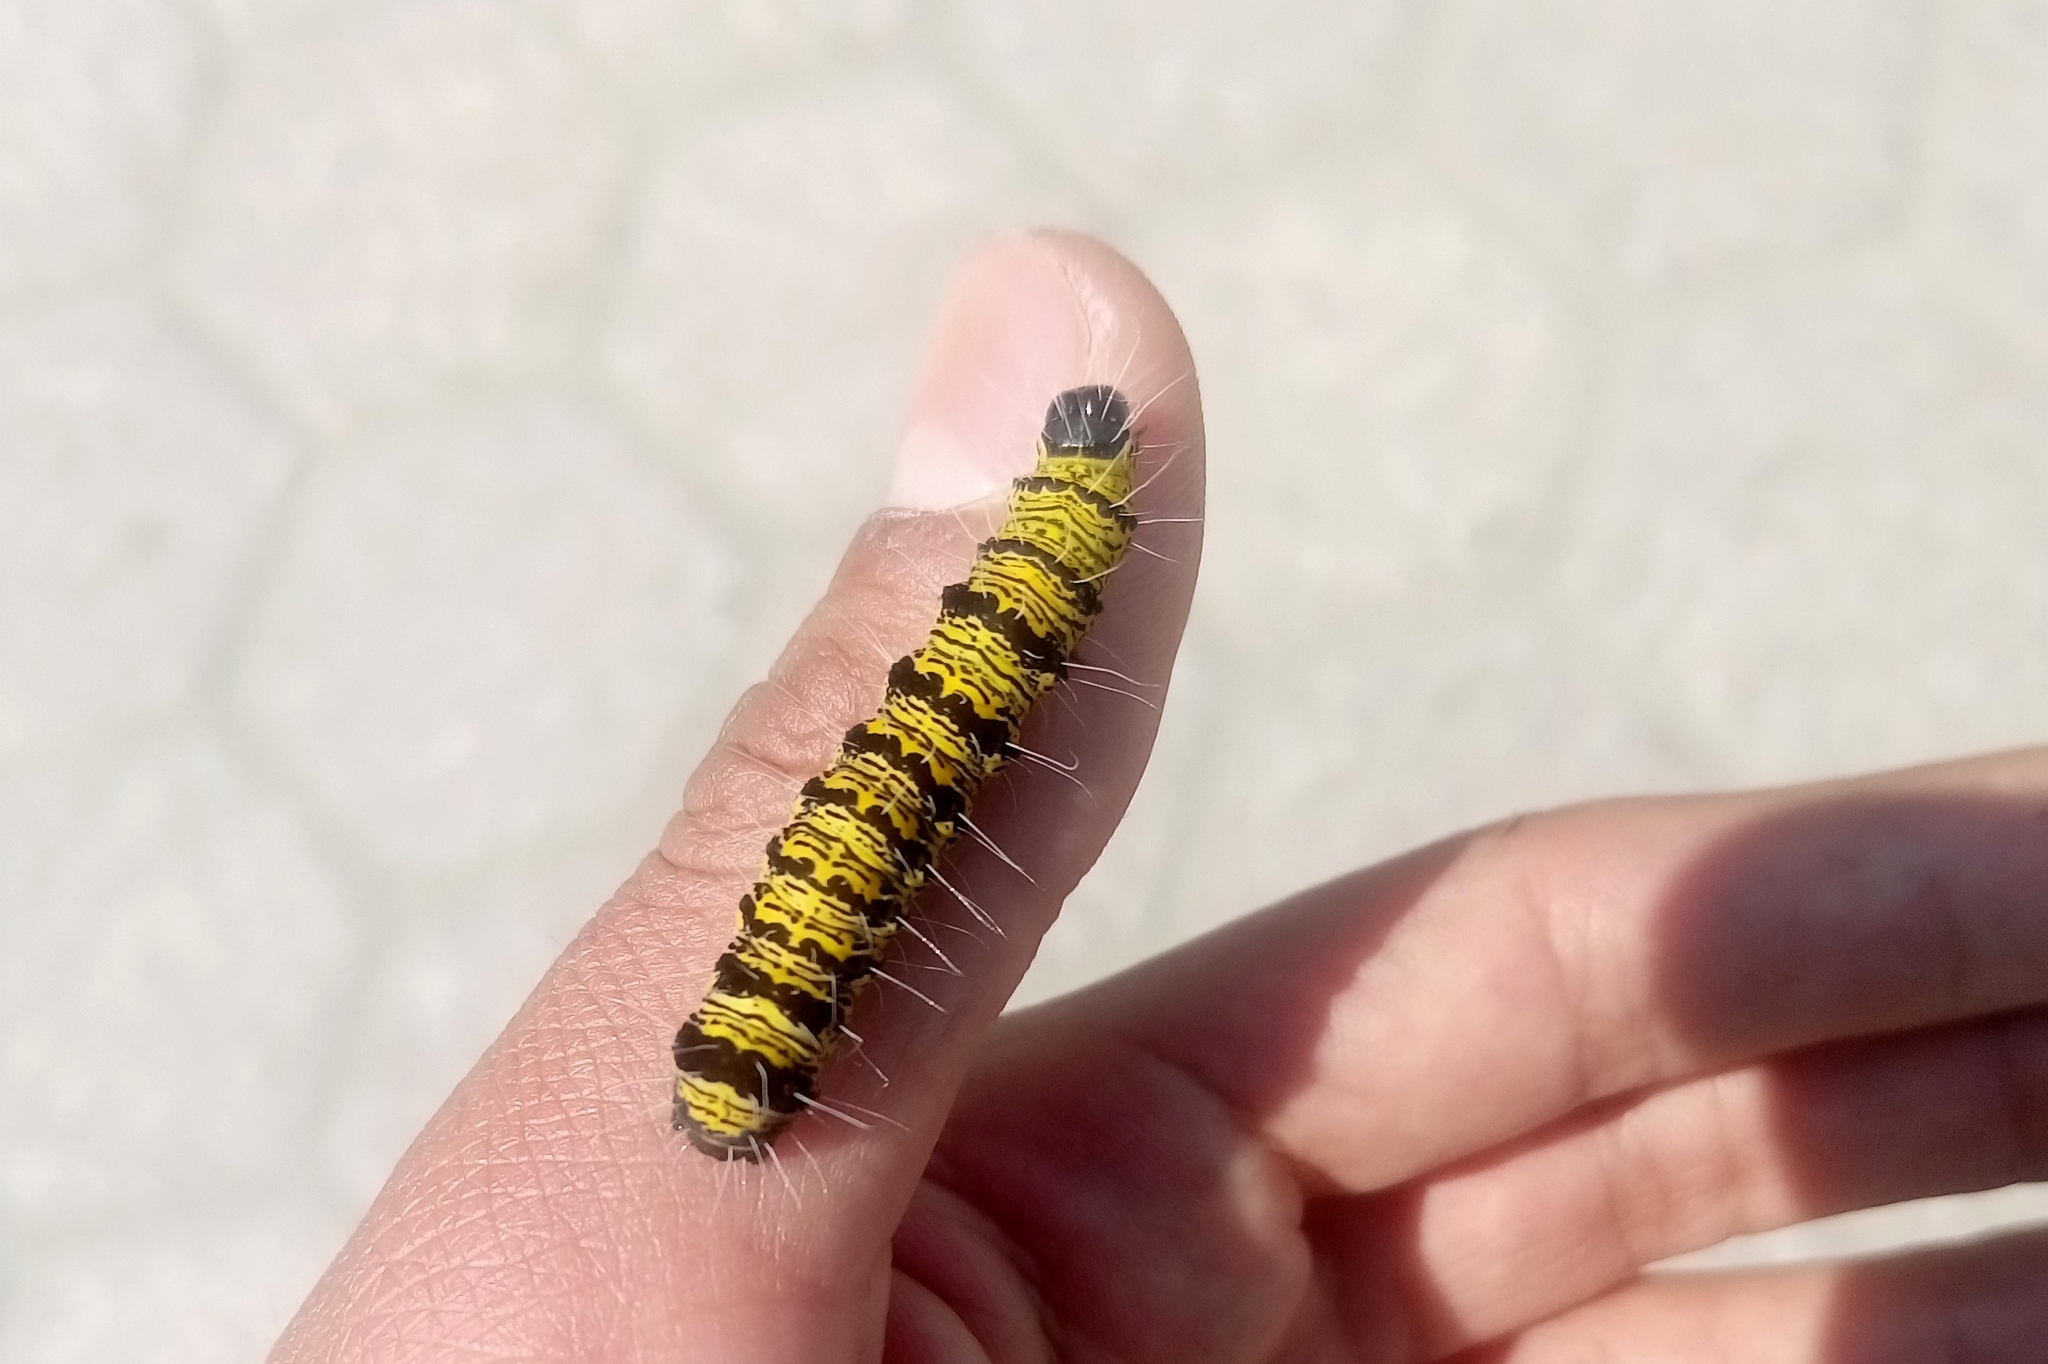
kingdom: Animalia
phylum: Arthropoda
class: Insecta
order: Lepidoptera
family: Noctuidae
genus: Alypiodes
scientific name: Alypiodes bimaculata
